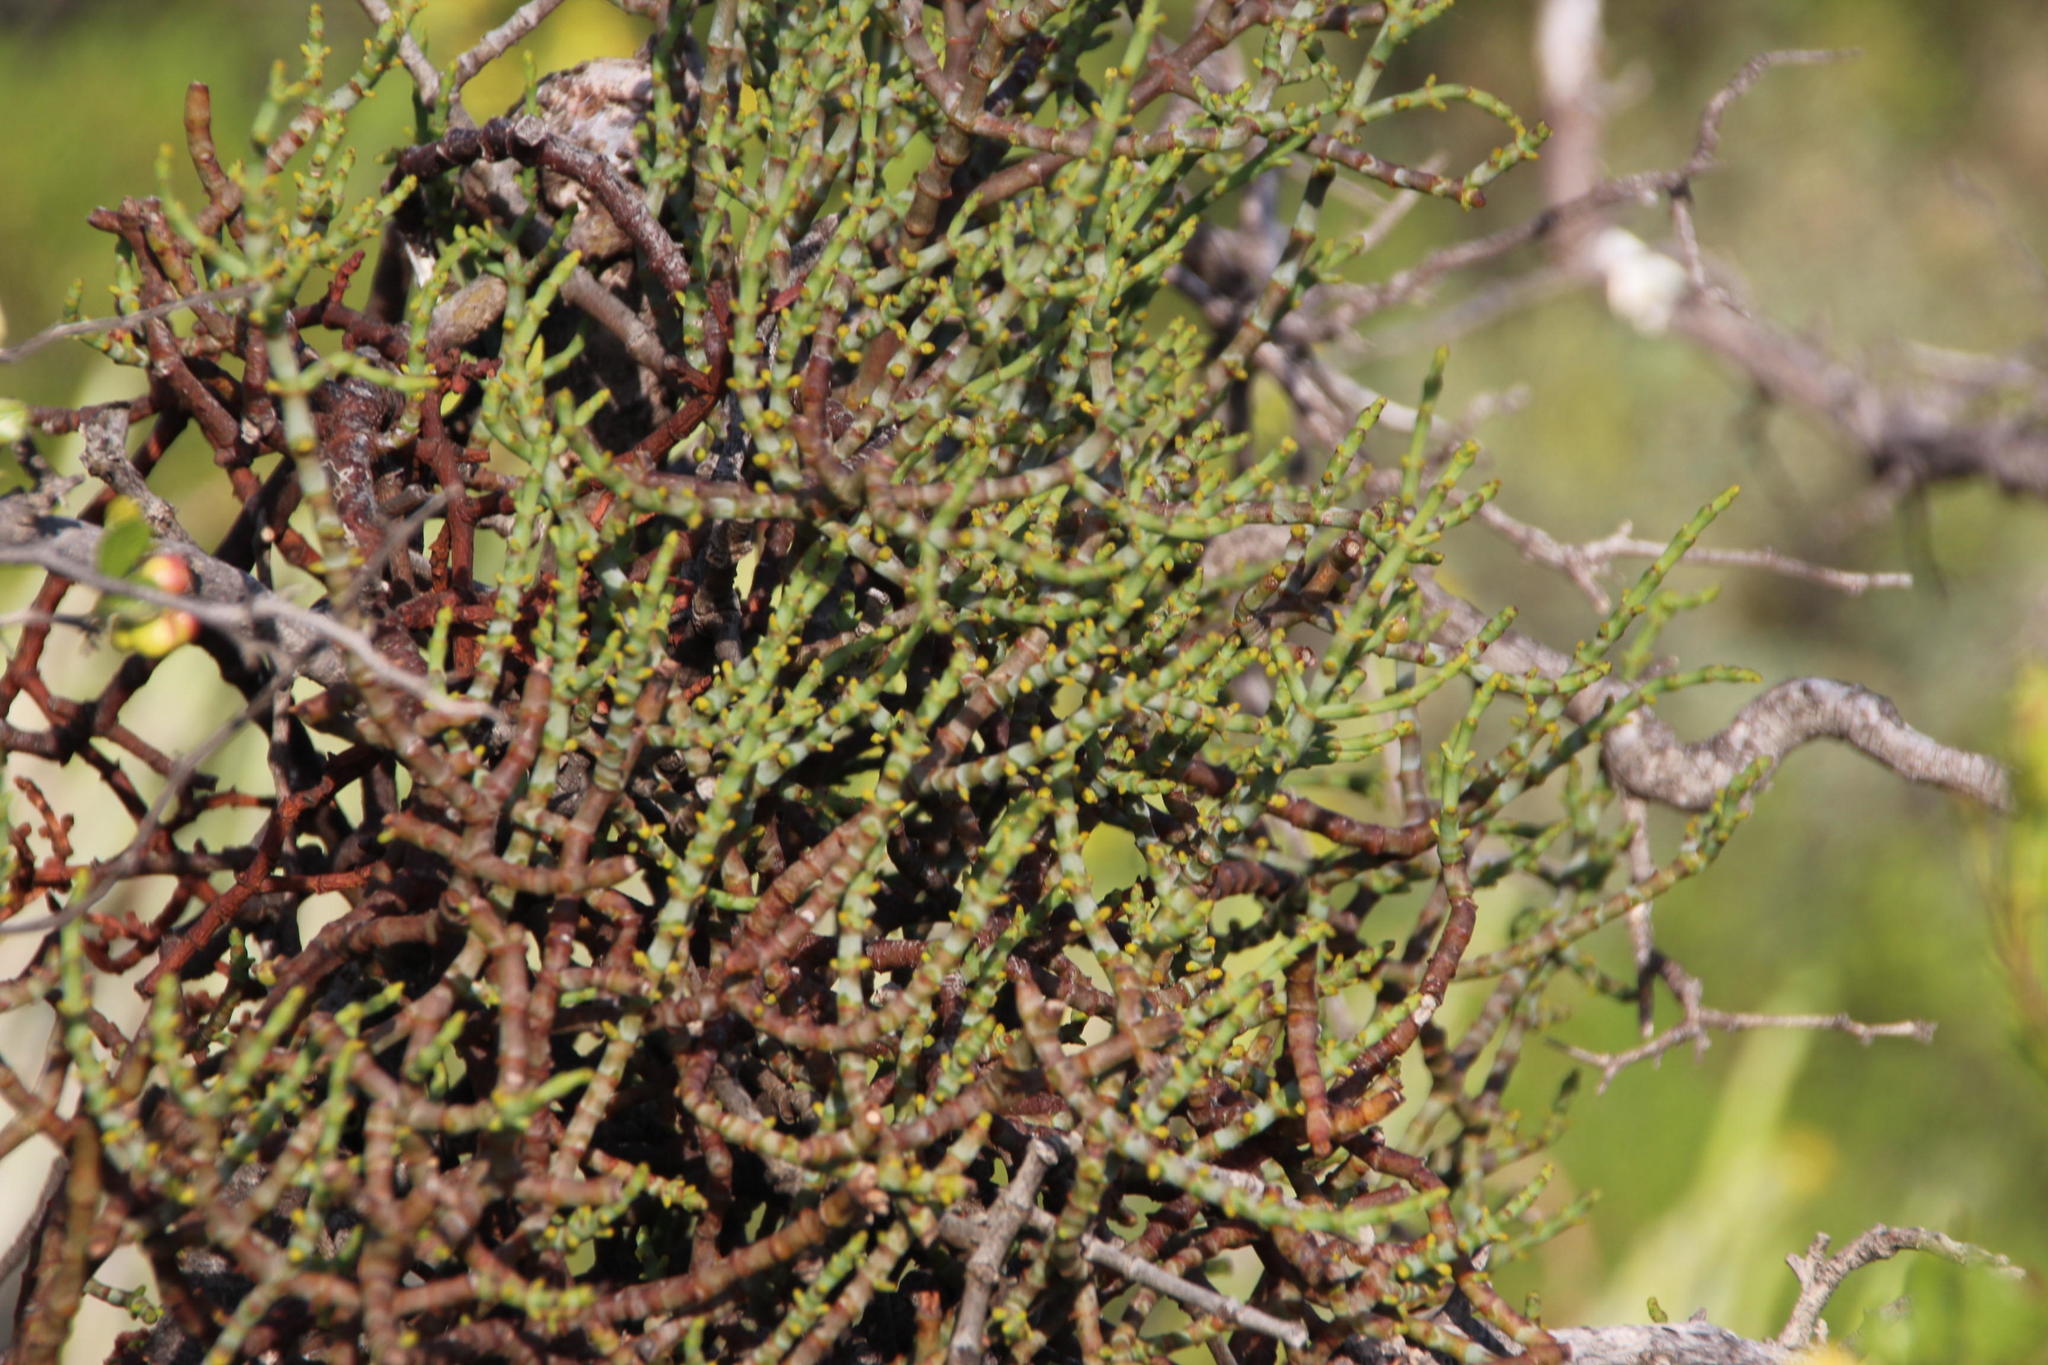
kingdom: Plantae
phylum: Tracheophyta
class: Magnoliopsida
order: Santalales
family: Viscaceae
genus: Viscum
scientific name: Viscum capense
